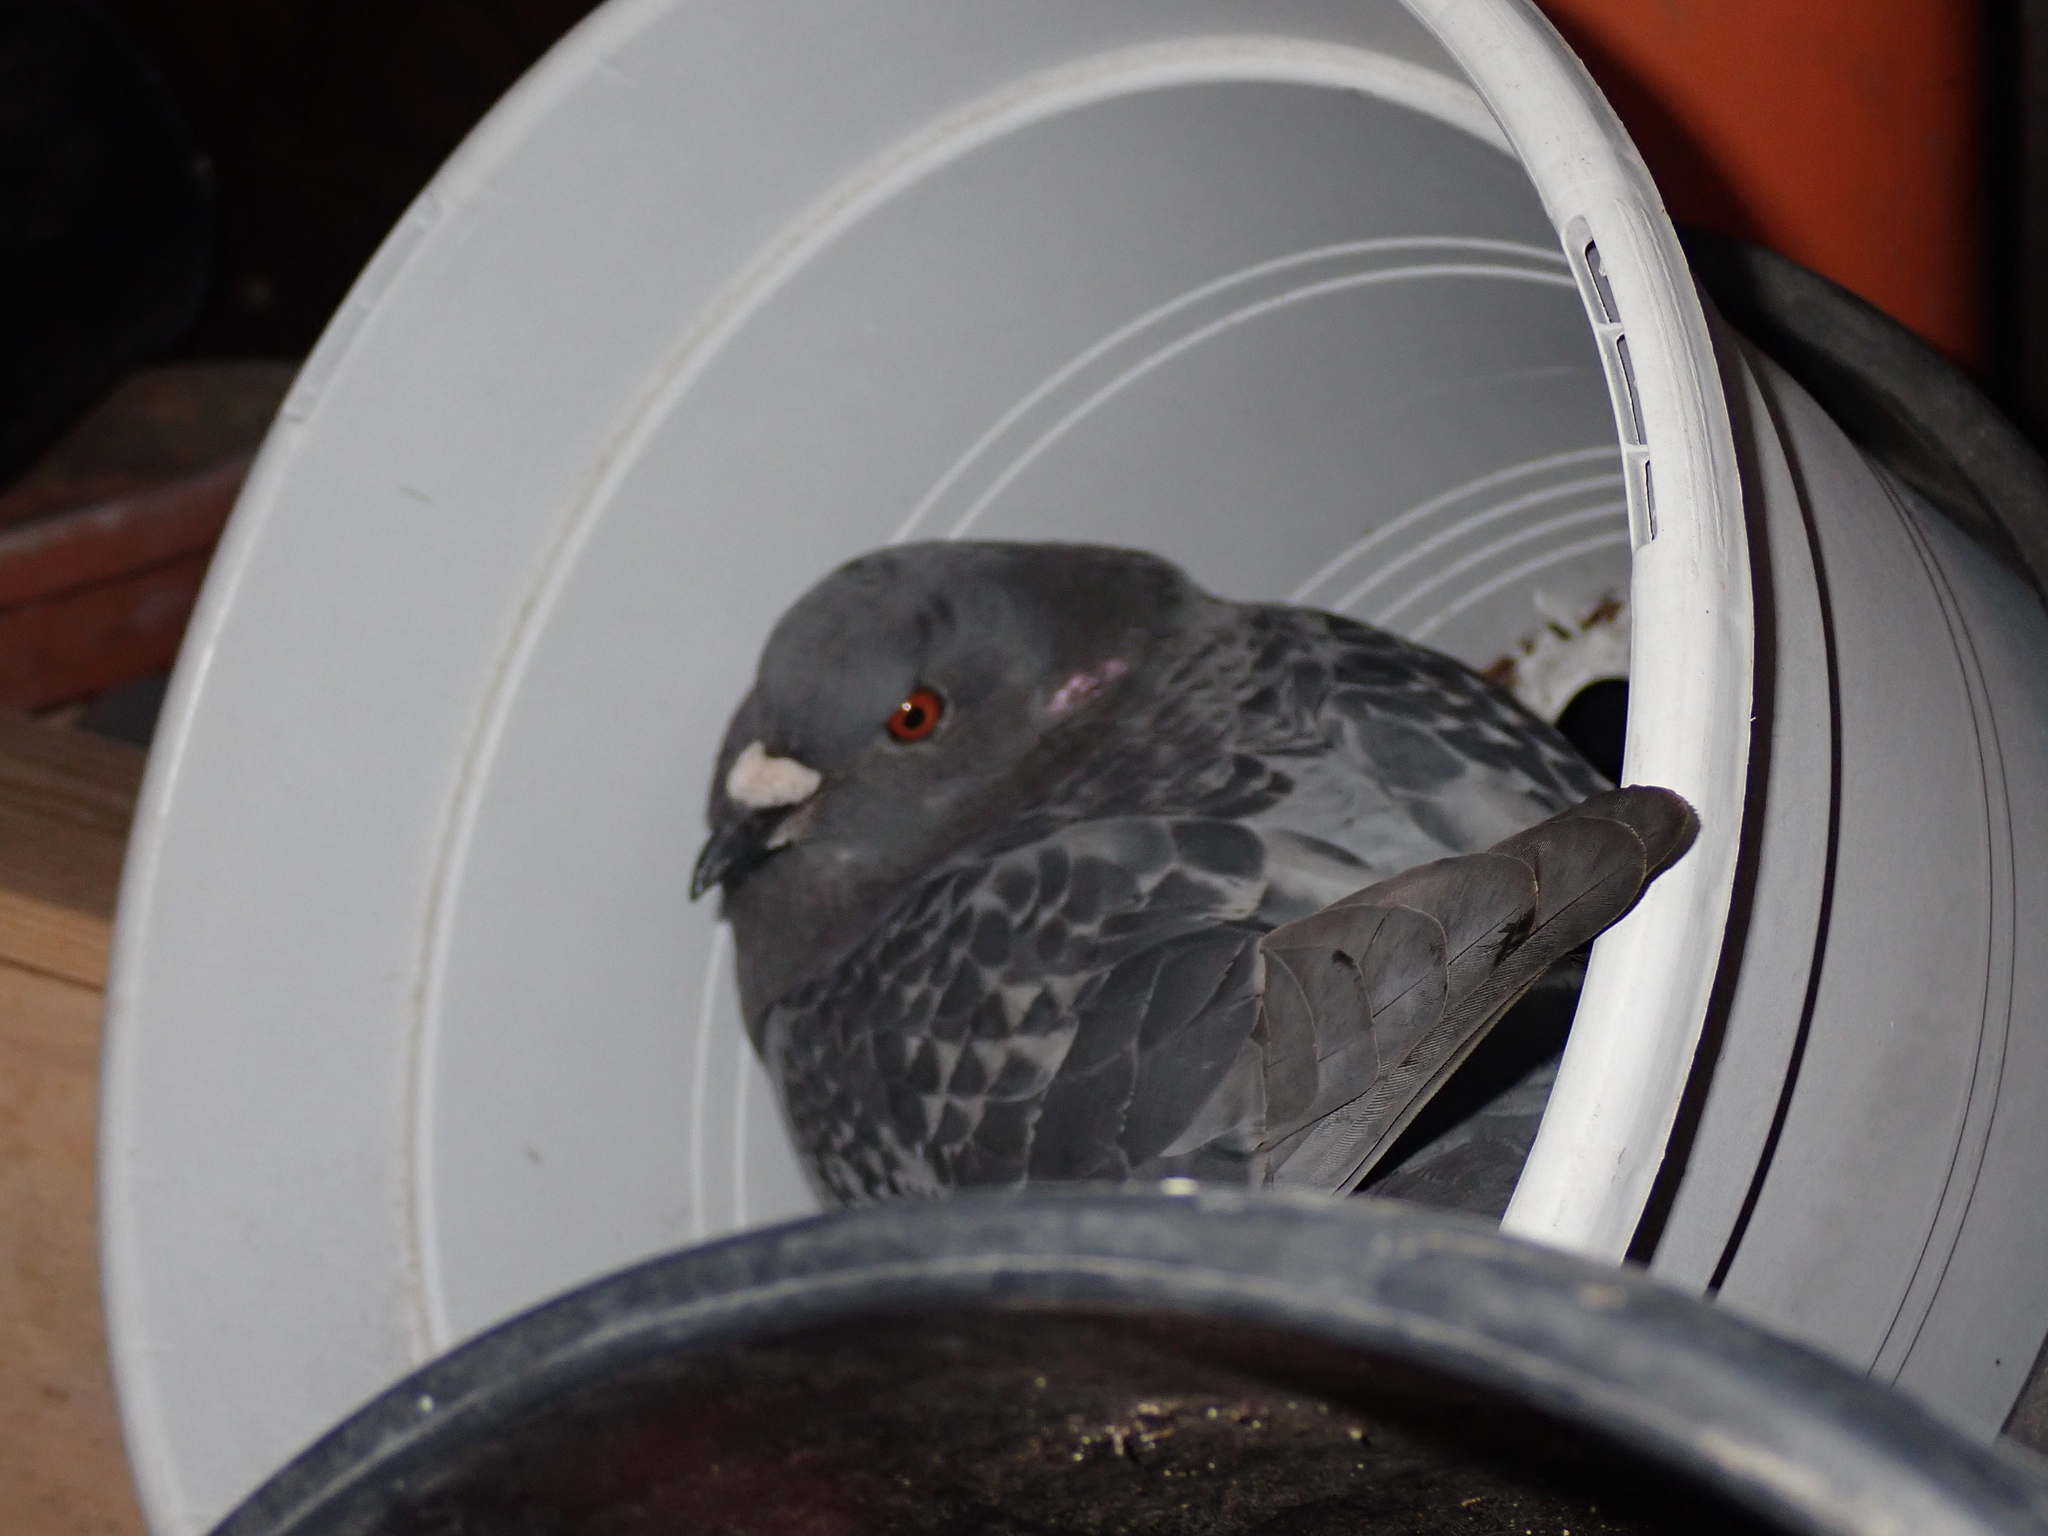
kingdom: Animalia
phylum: Chordata
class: Aves
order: Columbiformes
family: Columbidae
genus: Columba
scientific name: Columba livia
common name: Rock pigeon
